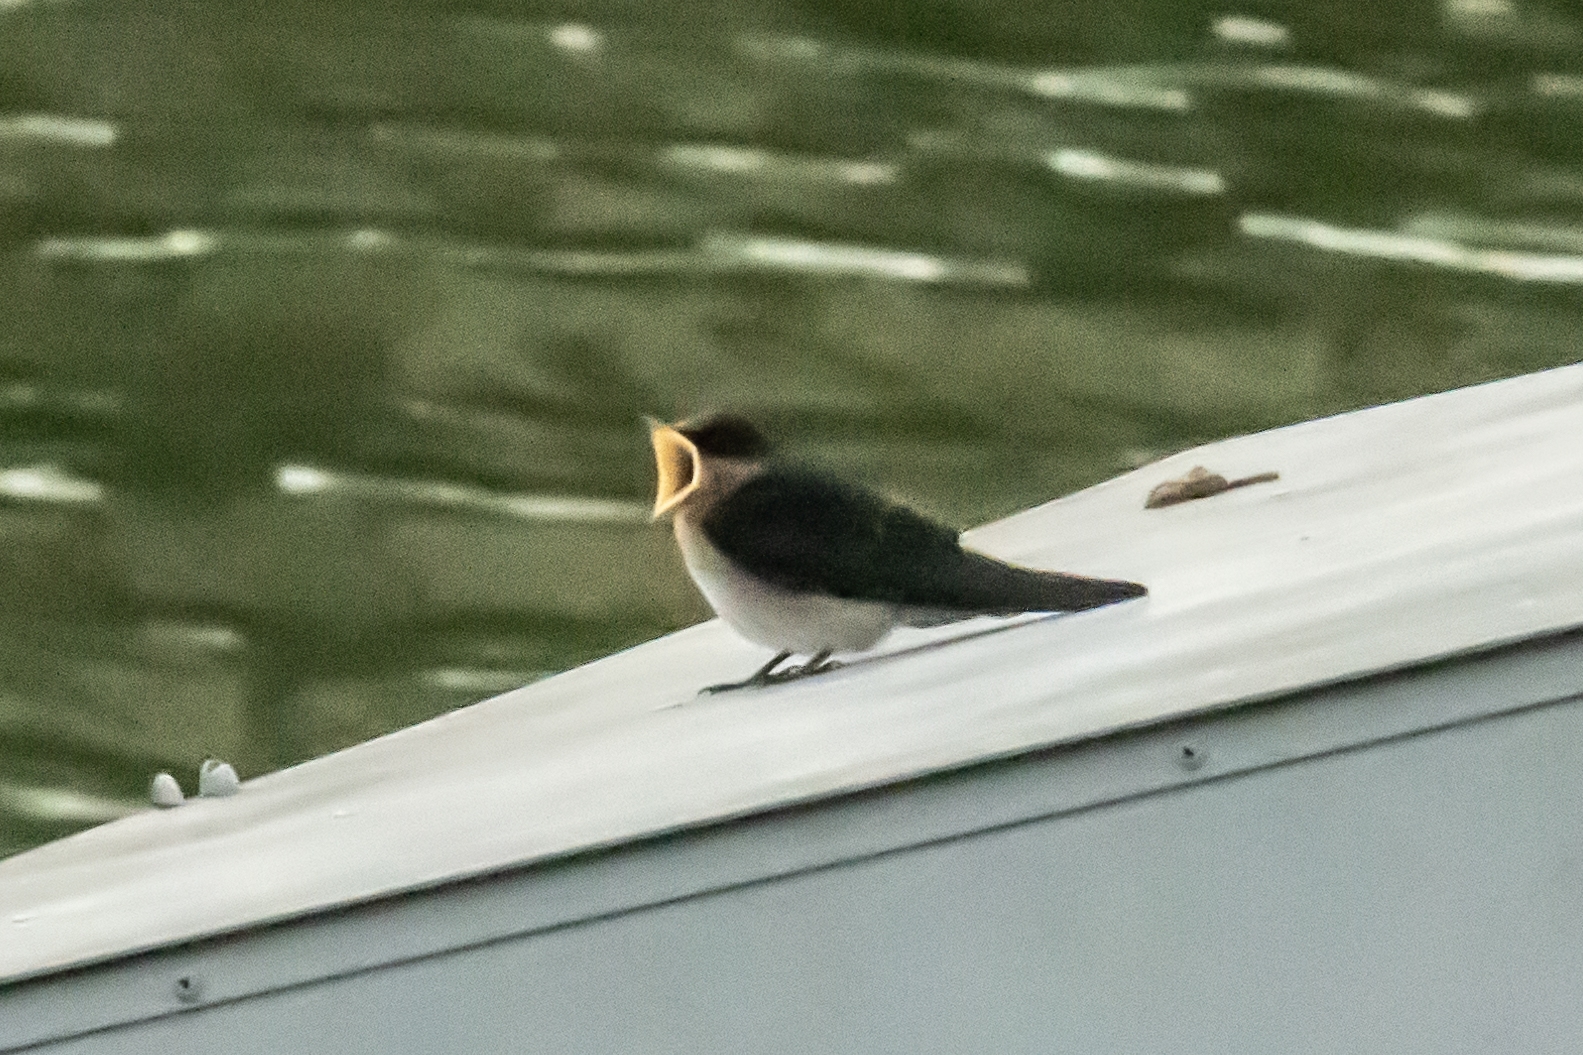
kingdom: Animalia
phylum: Chordata
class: Aves
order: Passeriformes
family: Hirundinidae
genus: Hirundo
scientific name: Hirundo tahitica
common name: Pacific swallow
